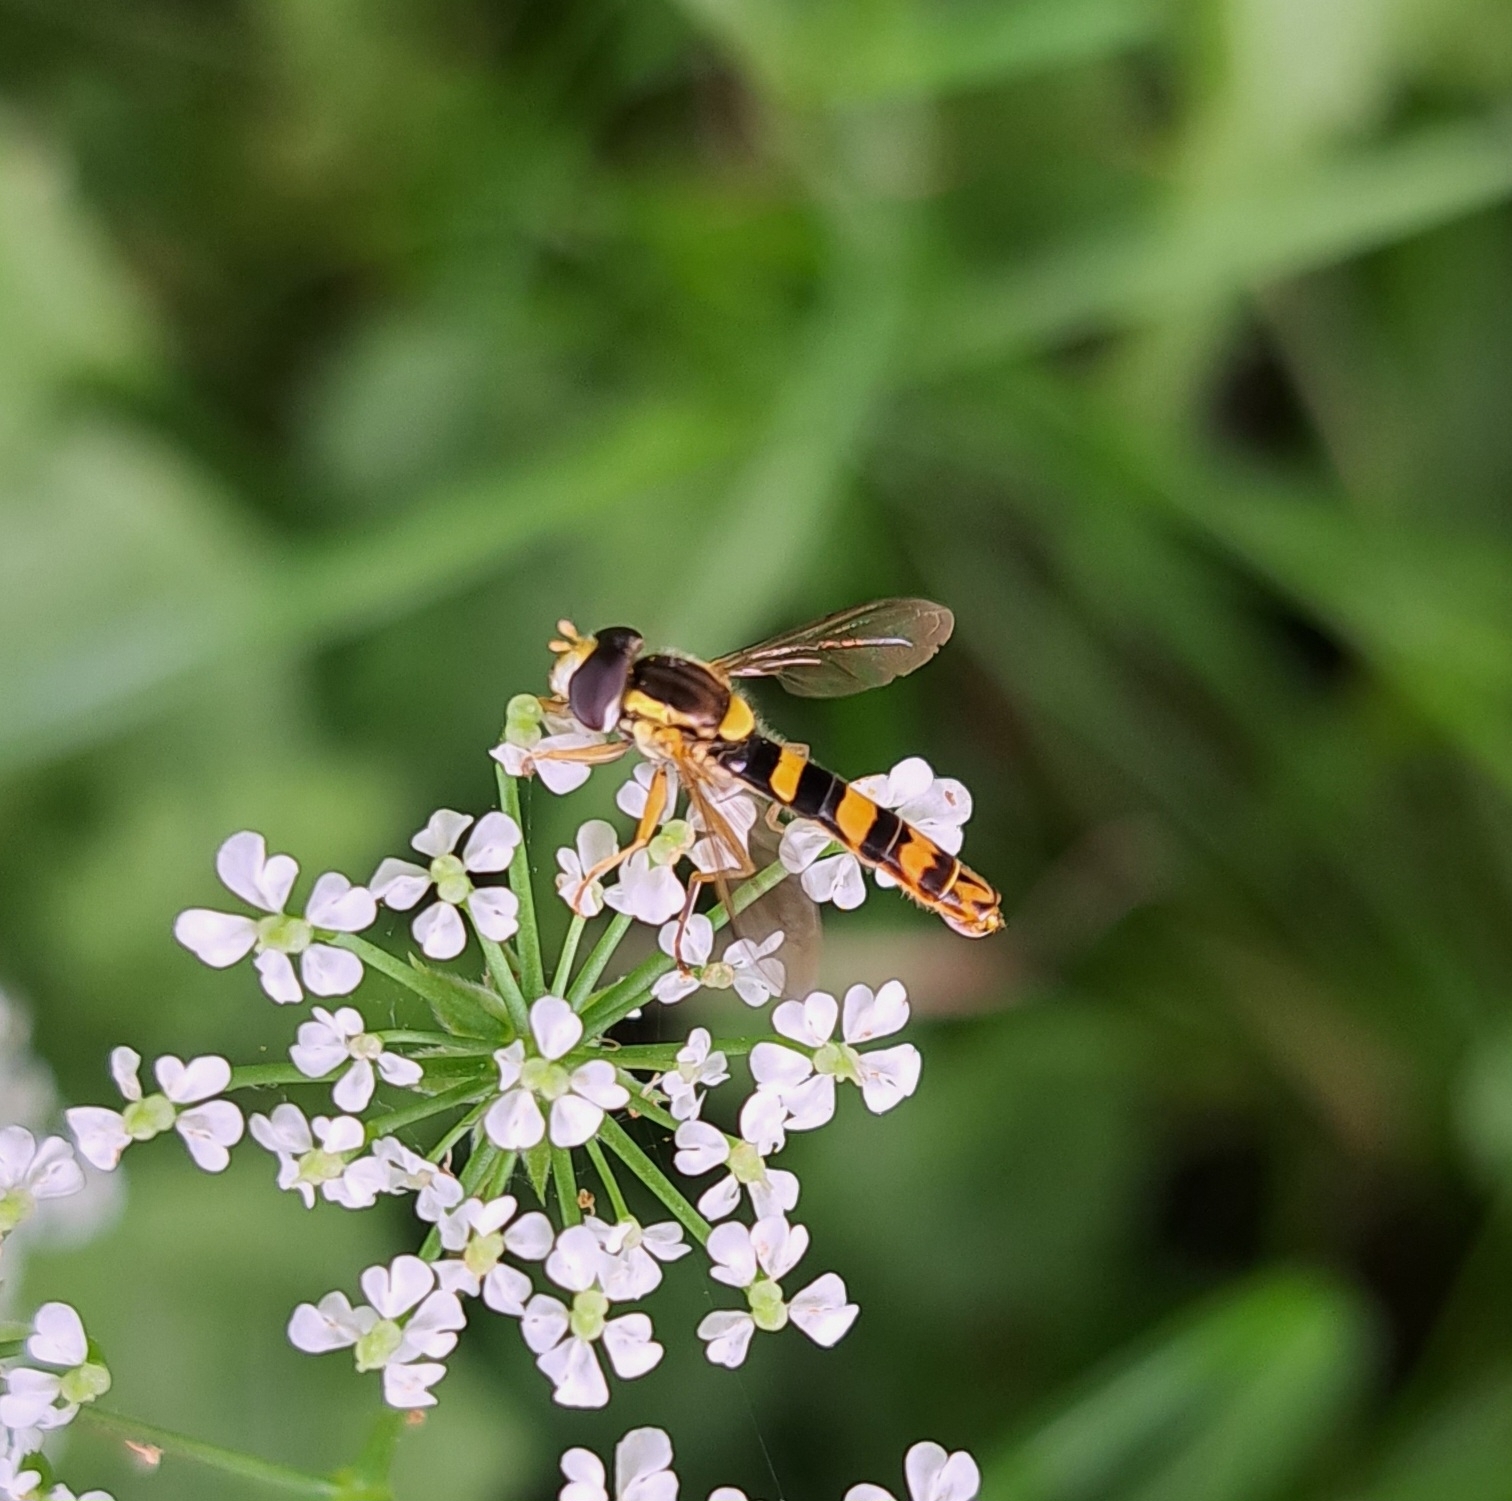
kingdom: Animalia
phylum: Arthropoda
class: Insecta
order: Diptera
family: Syrphidae
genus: Sphaerophoria
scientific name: Sphaerophoria scripta
